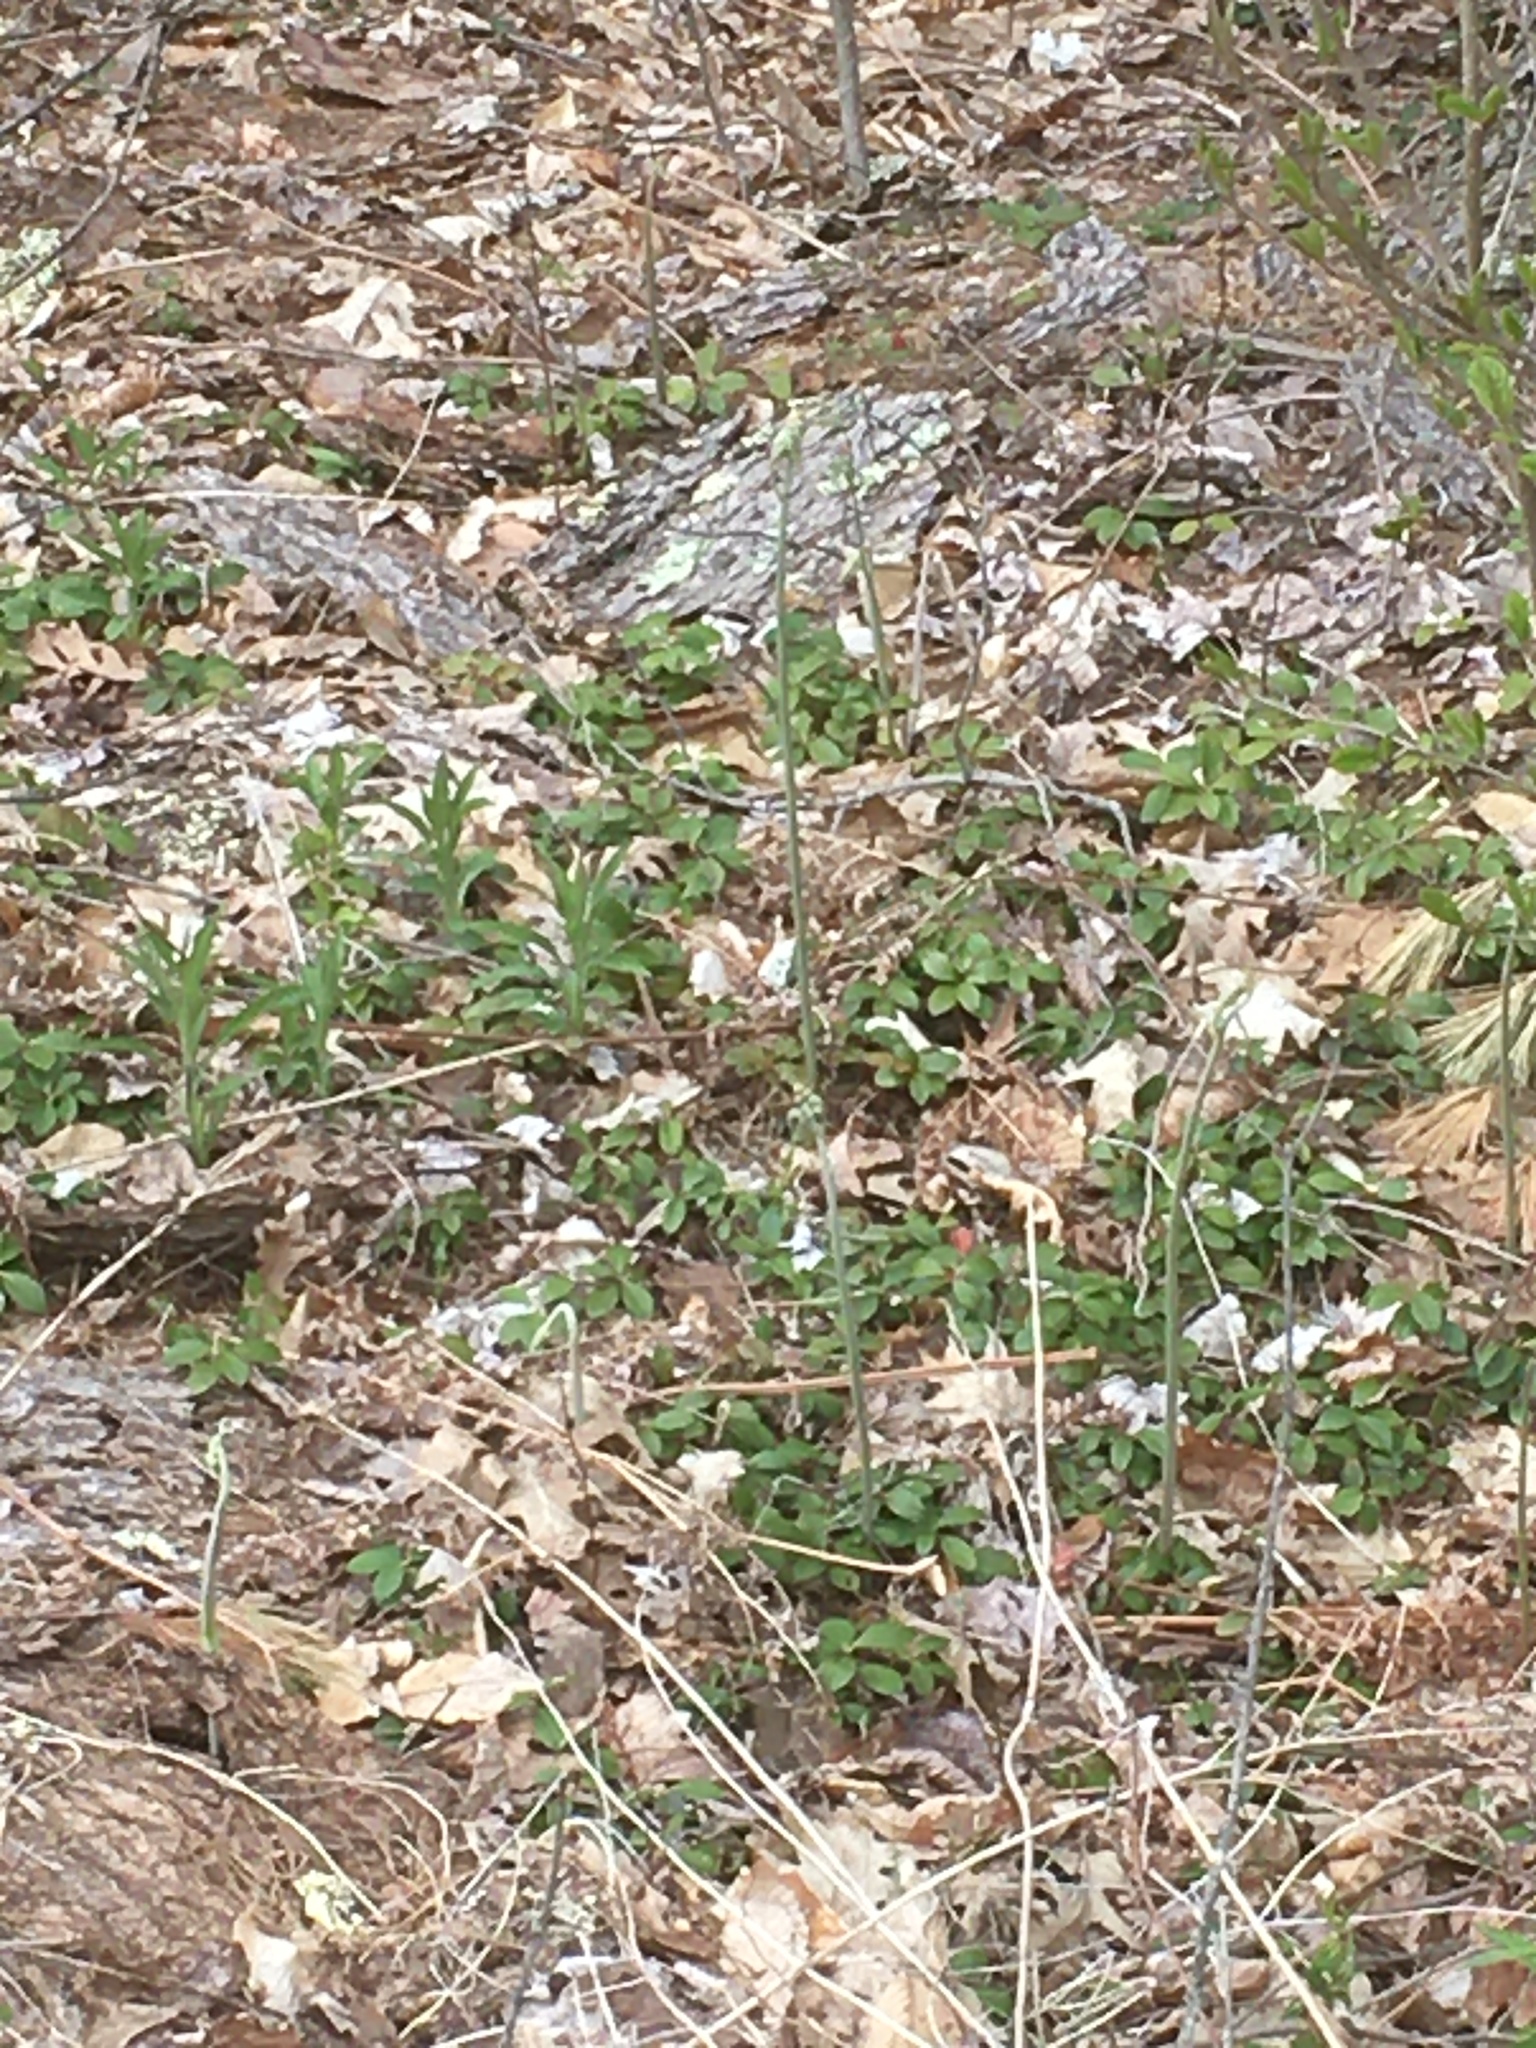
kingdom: Plantae
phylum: Tracheophyta
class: Polypodiopsida
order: Polypodiales
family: Dennstaedtiaceae
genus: Pteridium
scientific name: Pteridium aquilinum
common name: Bracken
